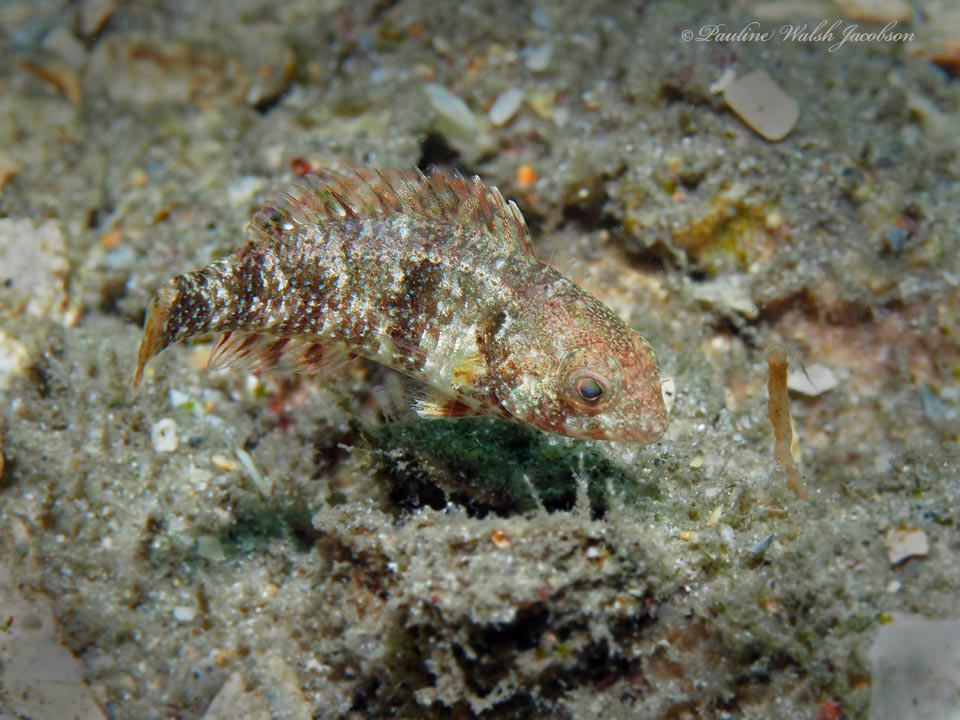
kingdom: Animalia
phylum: Chordata
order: Perciformes
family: Scaridae
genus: Sparisoma
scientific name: Sparisoma aurofrenatum
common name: Redband parrotfish
